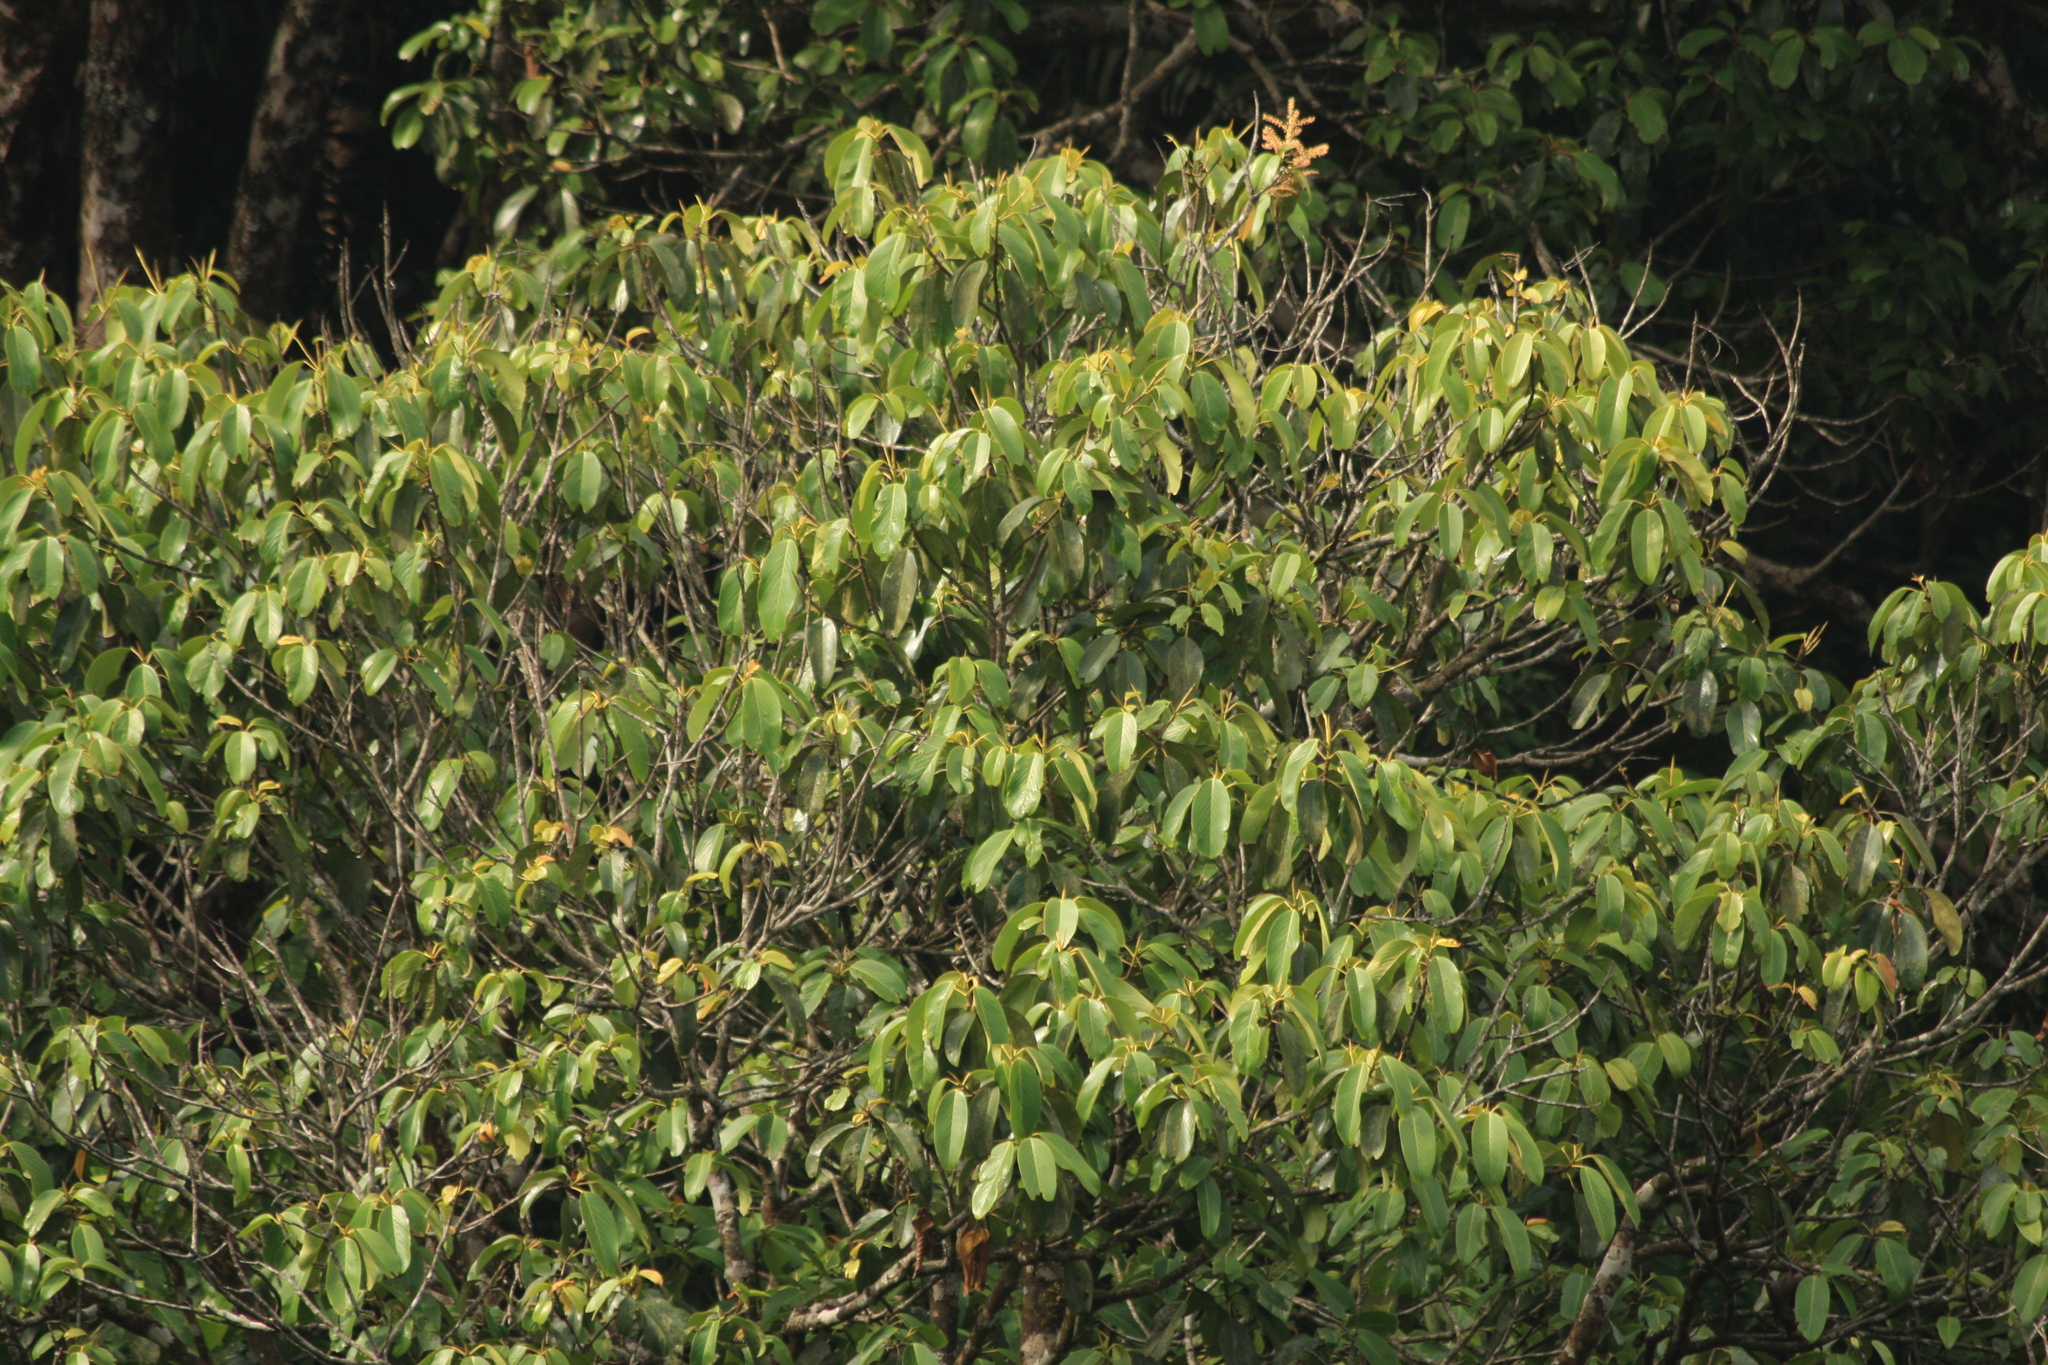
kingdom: Plantae
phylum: Tracheophyta
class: Magnoliopsida
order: Malpighiales
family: Centroplacaceae
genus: Bhesa
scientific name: Bhesa indica
